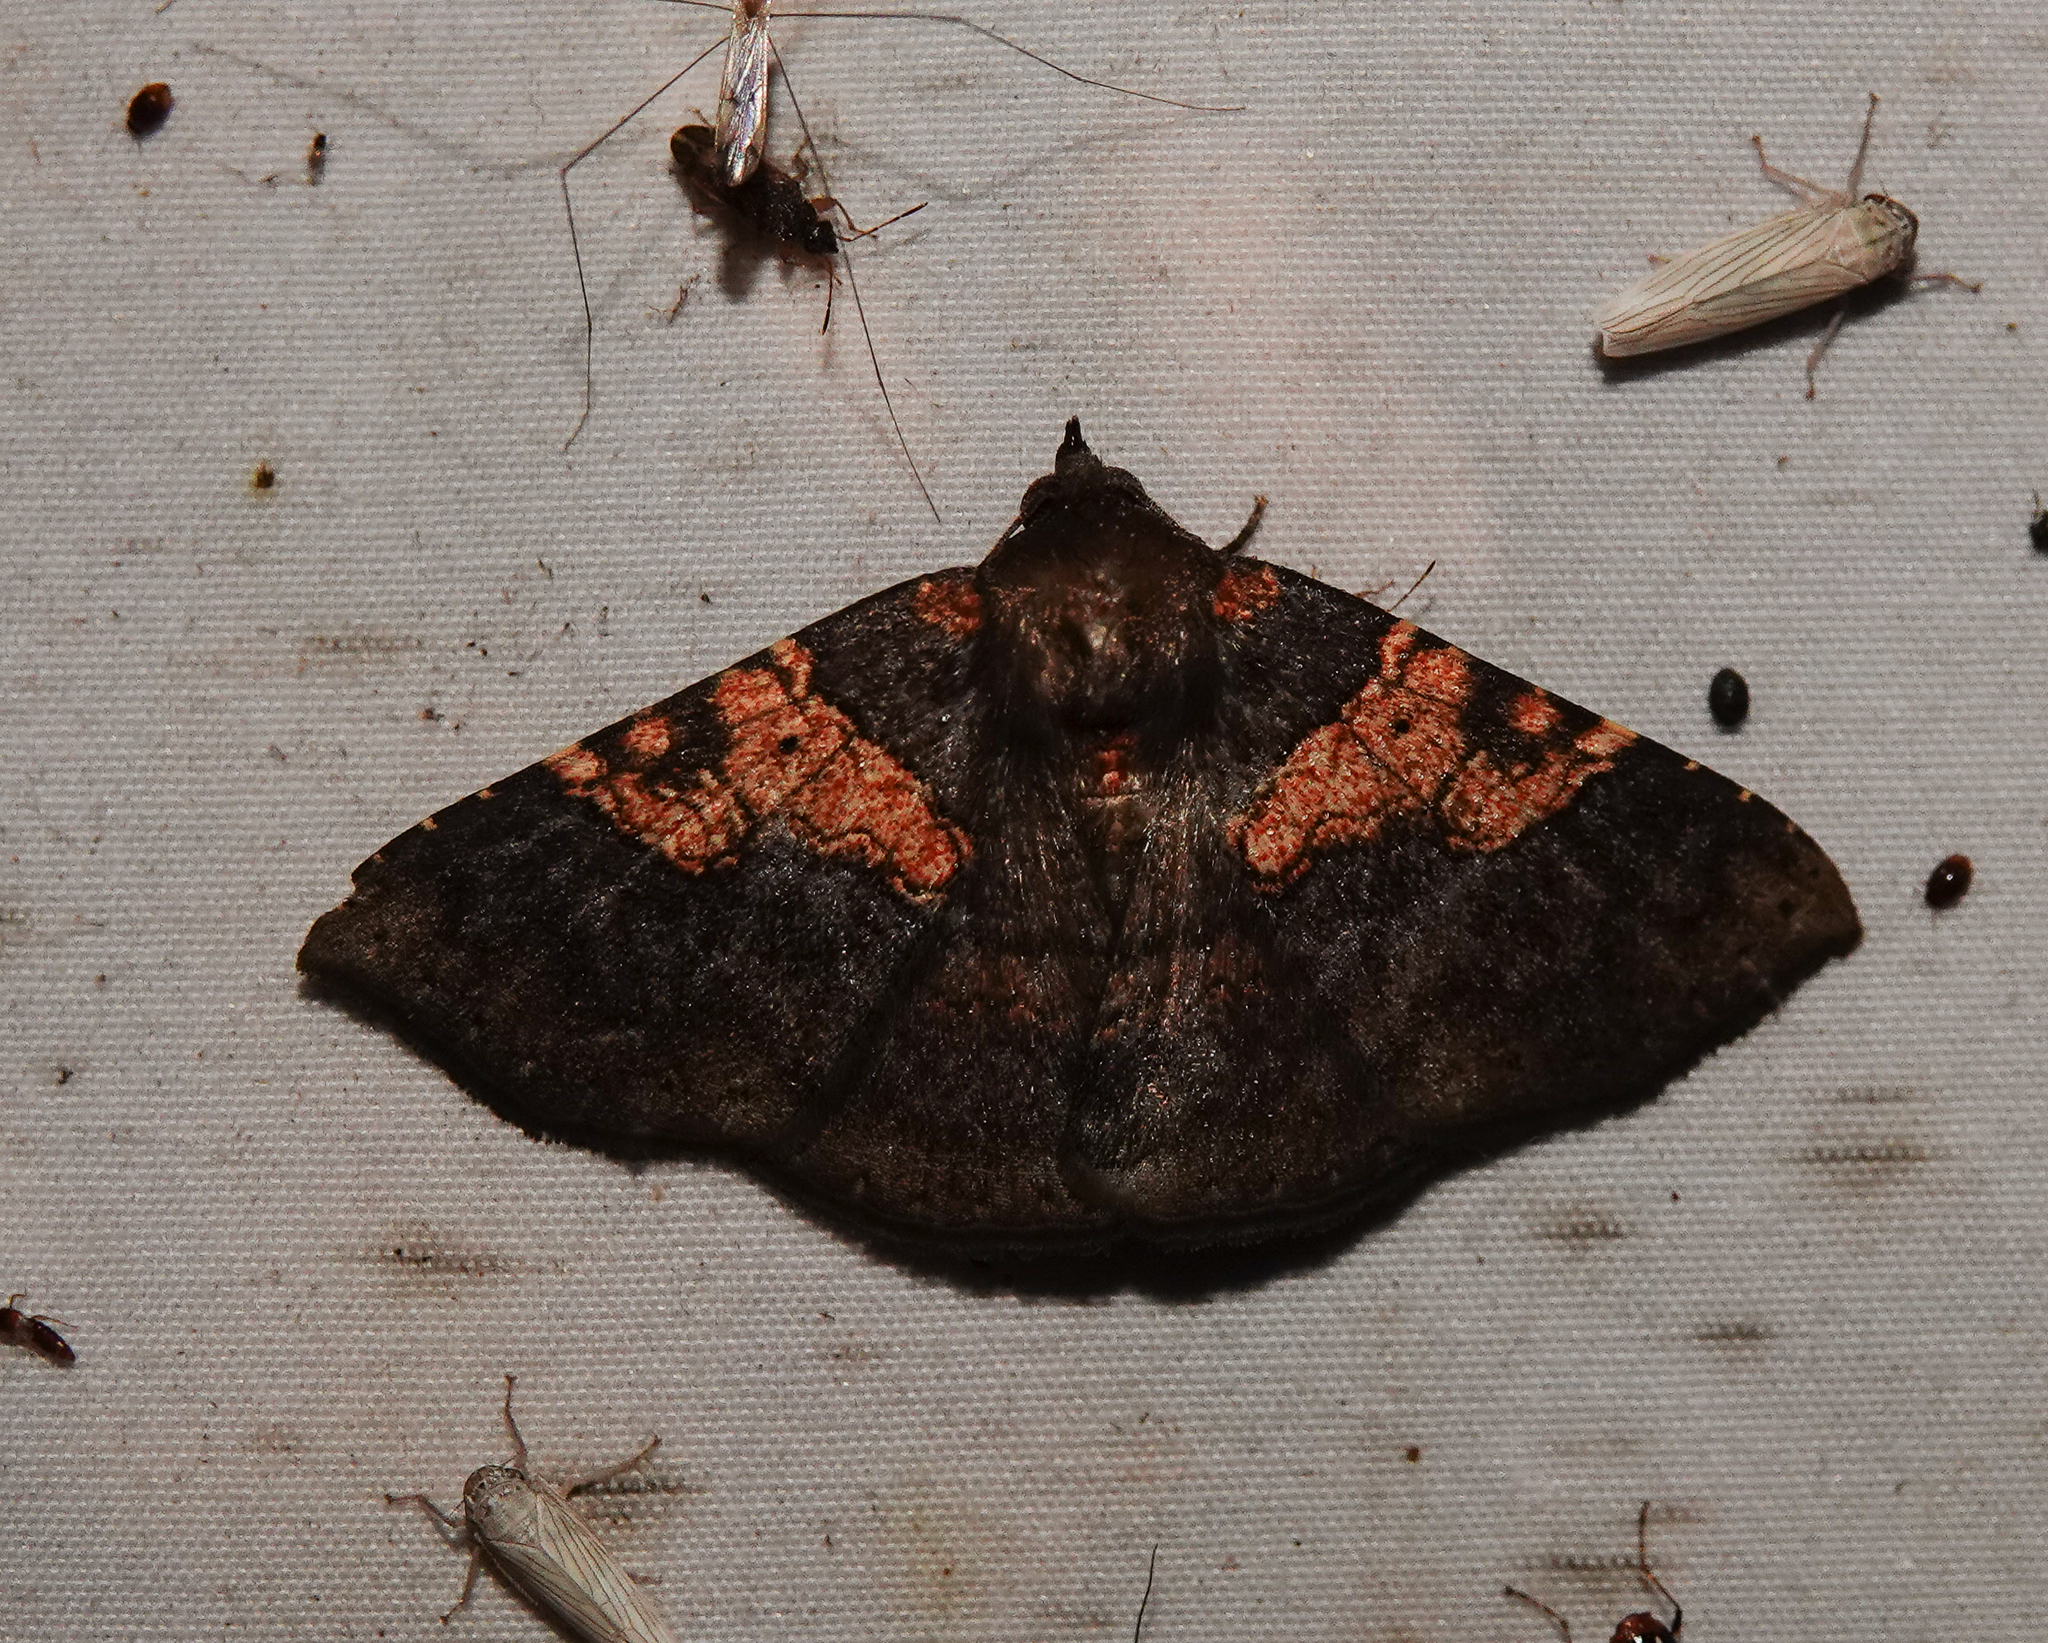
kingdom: Animalia
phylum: Arthropoda
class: Insecta
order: Lepidoptera
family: Erebidae
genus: Platyjionia
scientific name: Platyjionia mediorufa
